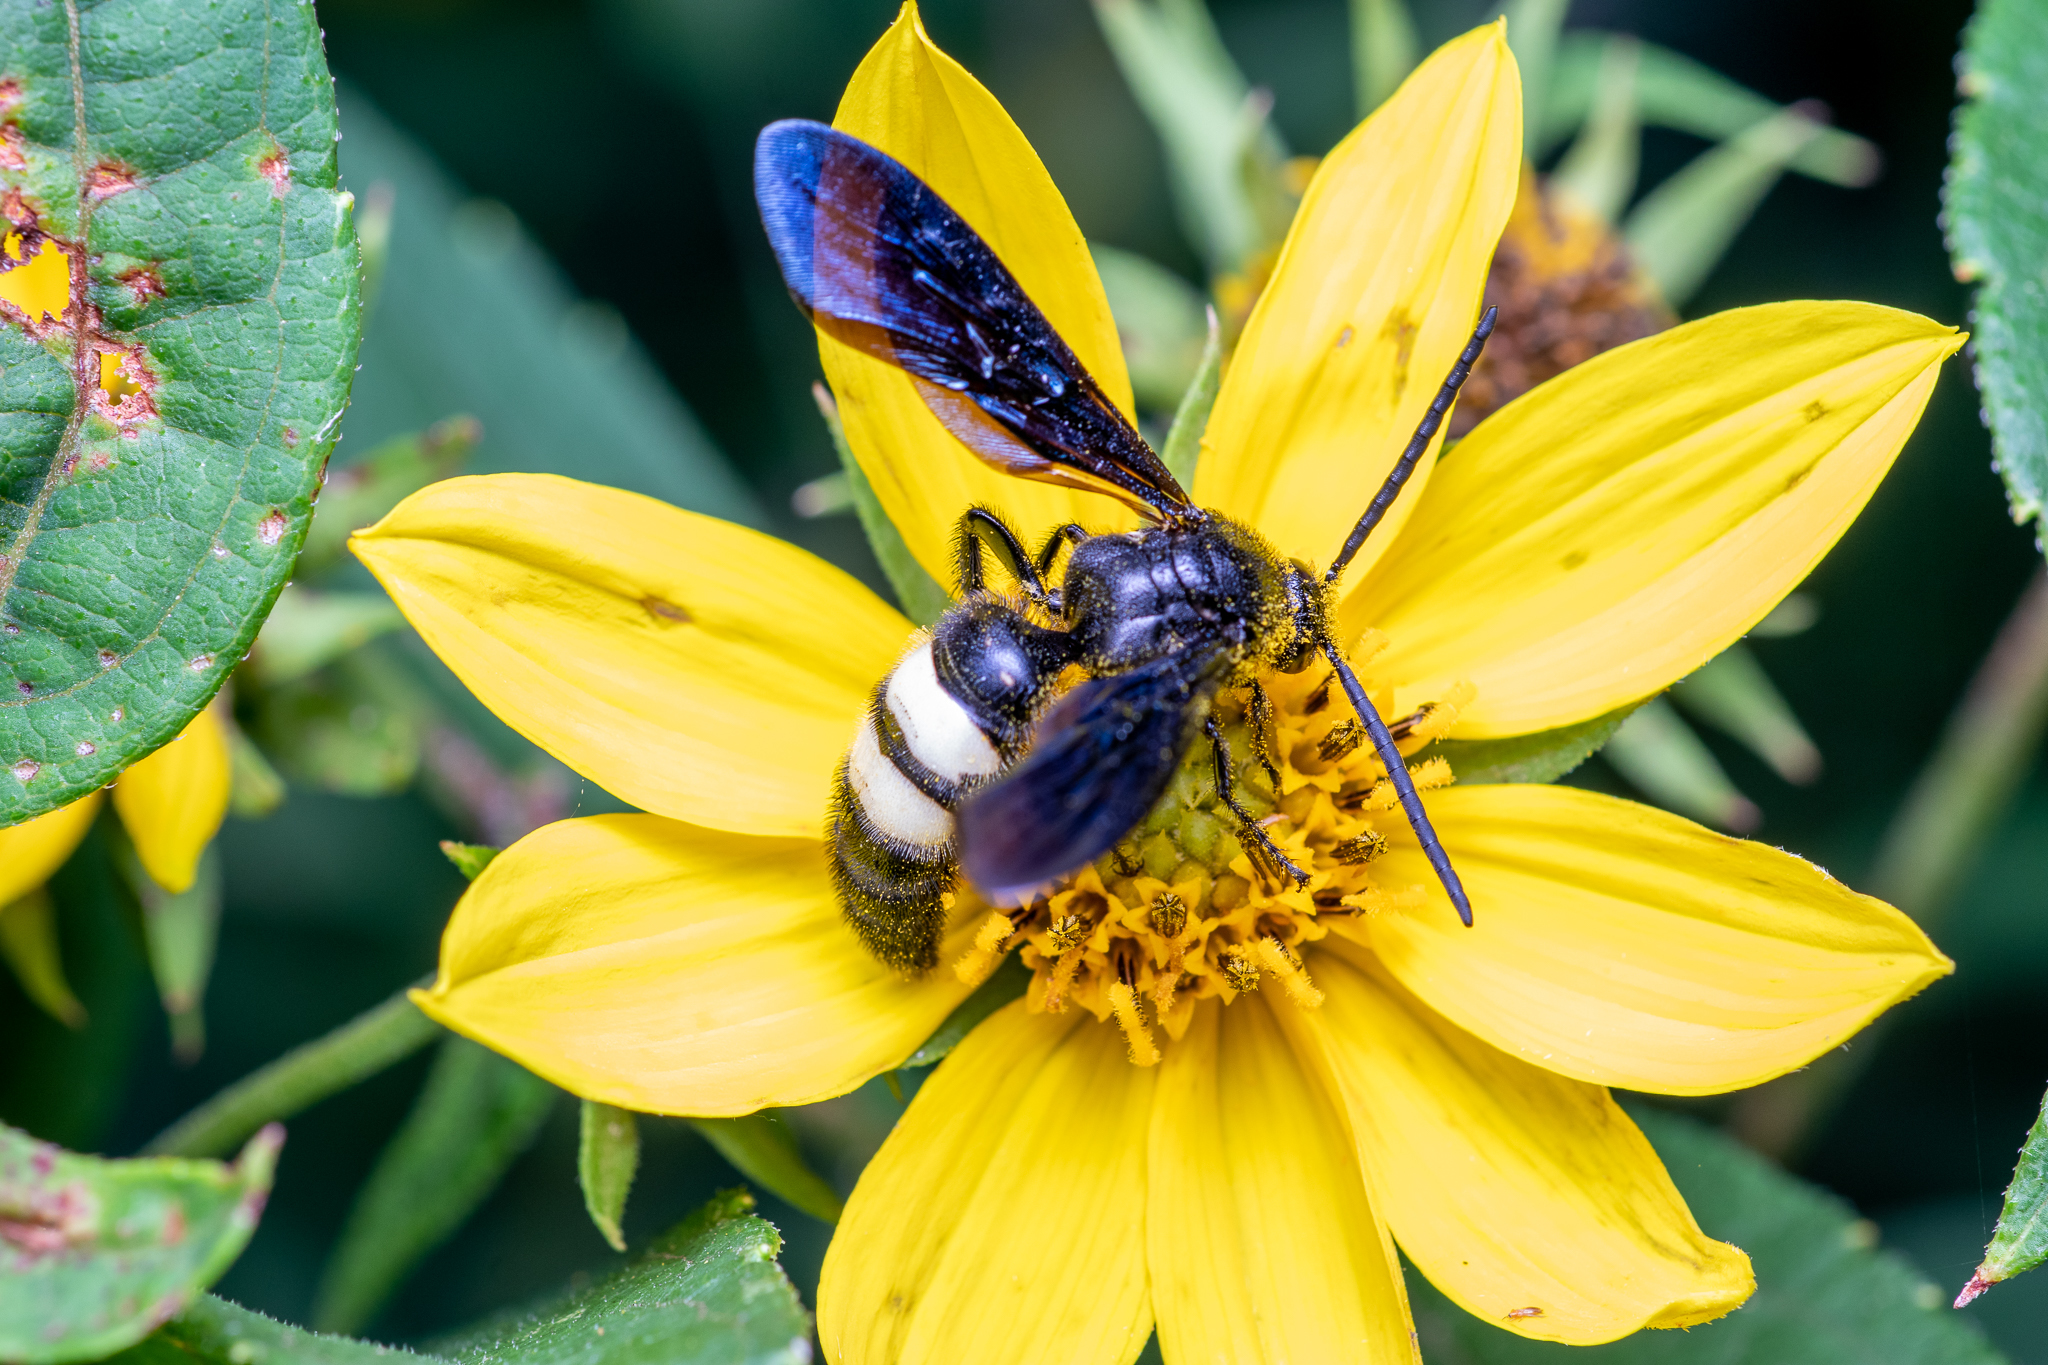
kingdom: Animalia
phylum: Arthropoda
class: Insecta
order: Hymenoptera
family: Scoliidae
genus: Scolia
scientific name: Scolia bicincta
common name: Double-banded scoliid wasp
